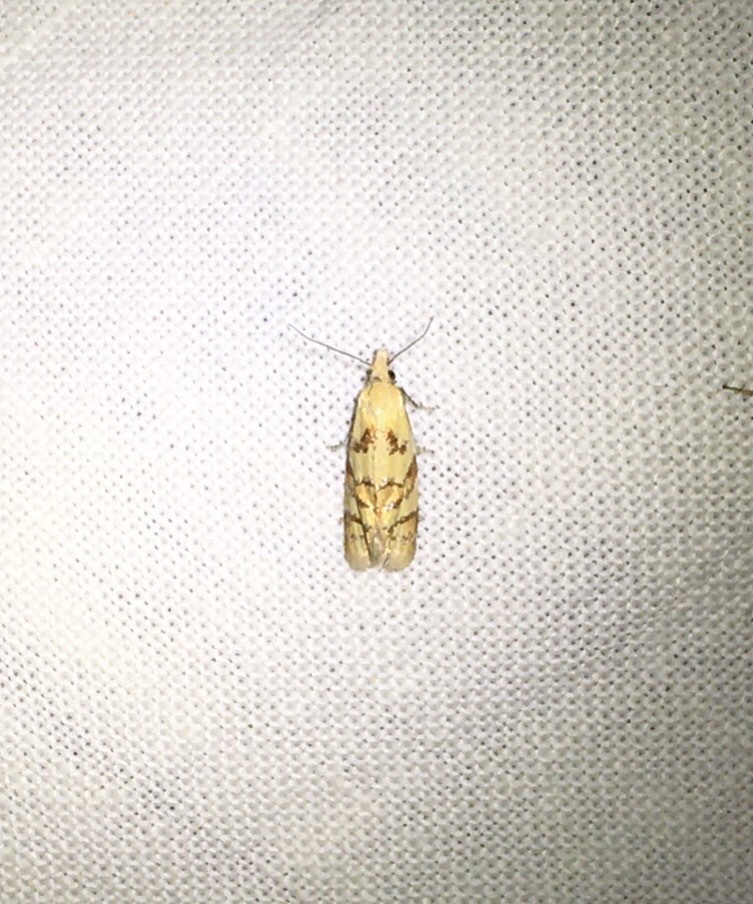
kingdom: Animalia
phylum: Arthropoda
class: Insecta
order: Lepidoptera
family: Tortricidae
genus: Phtheochroa
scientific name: Phtheochroa vitellinana
